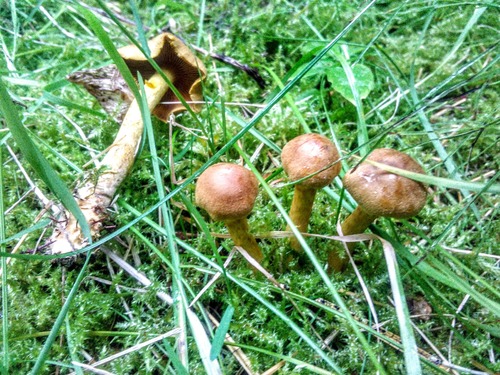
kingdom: Fungi
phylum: Basidiomycota
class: Agaricomycetes
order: Agaricales
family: Cortinariaceae
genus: Cortinarius
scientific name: Cortinarius cinnamomeus
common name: Cinnamon webcap
